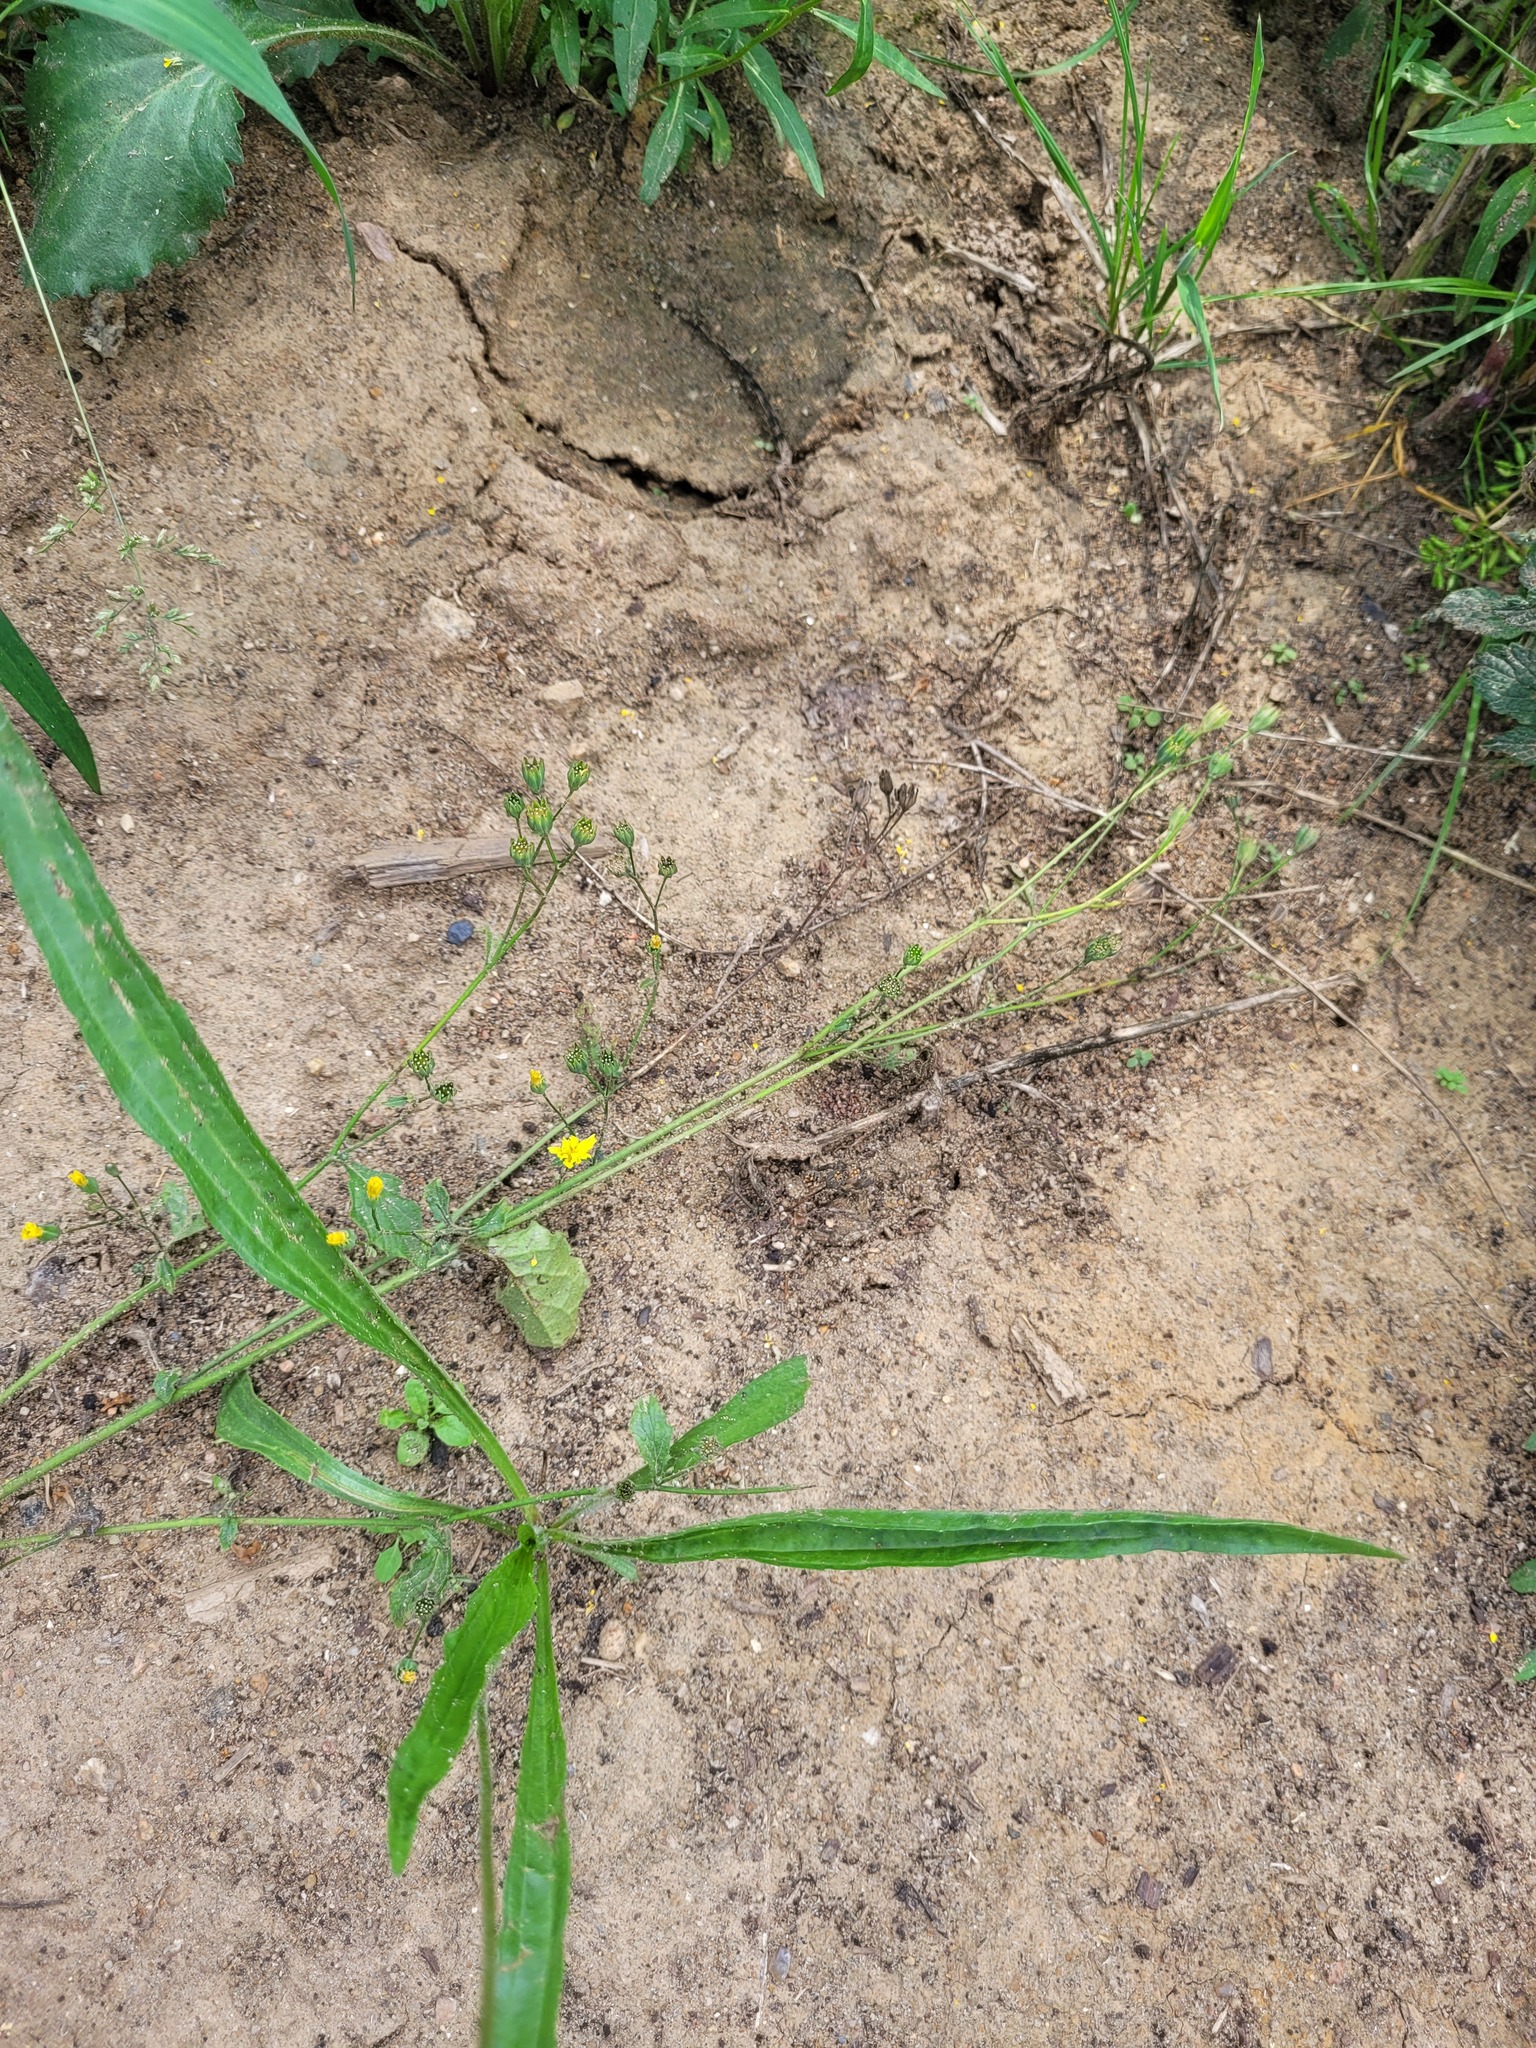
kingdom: Plantae
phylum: Tracheophyta
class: Magnoliopsida
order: Asterales
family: Asteraceae
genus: Lapsana
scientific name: Lapsana communis
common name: Nipplewort
